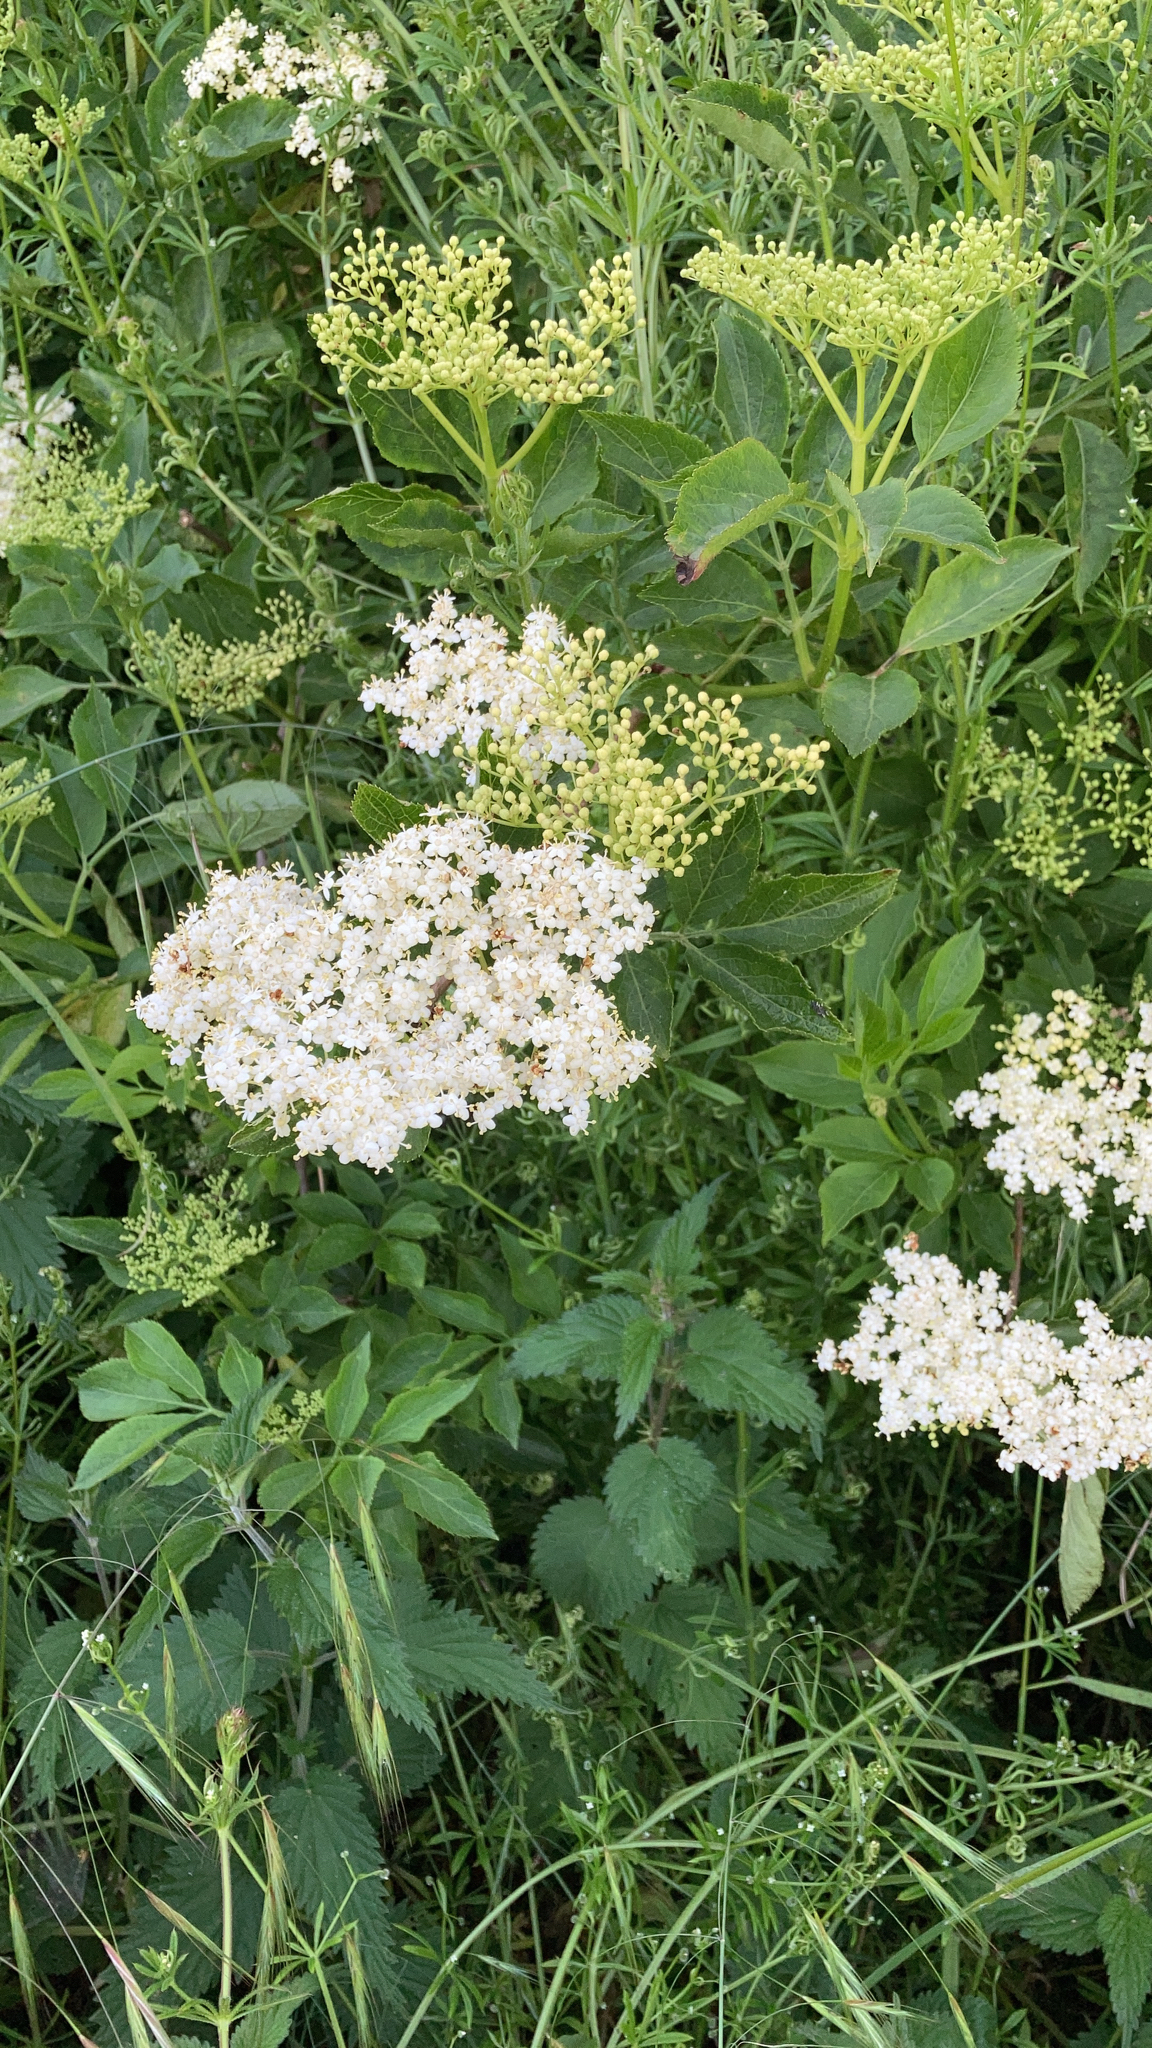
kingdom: Plantae
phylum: Tracheophyta
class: Magnoliopsida
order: Dipsacales
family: Viburnaceae
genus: Sambucus
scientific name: Sambucus nigra
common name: Elder
